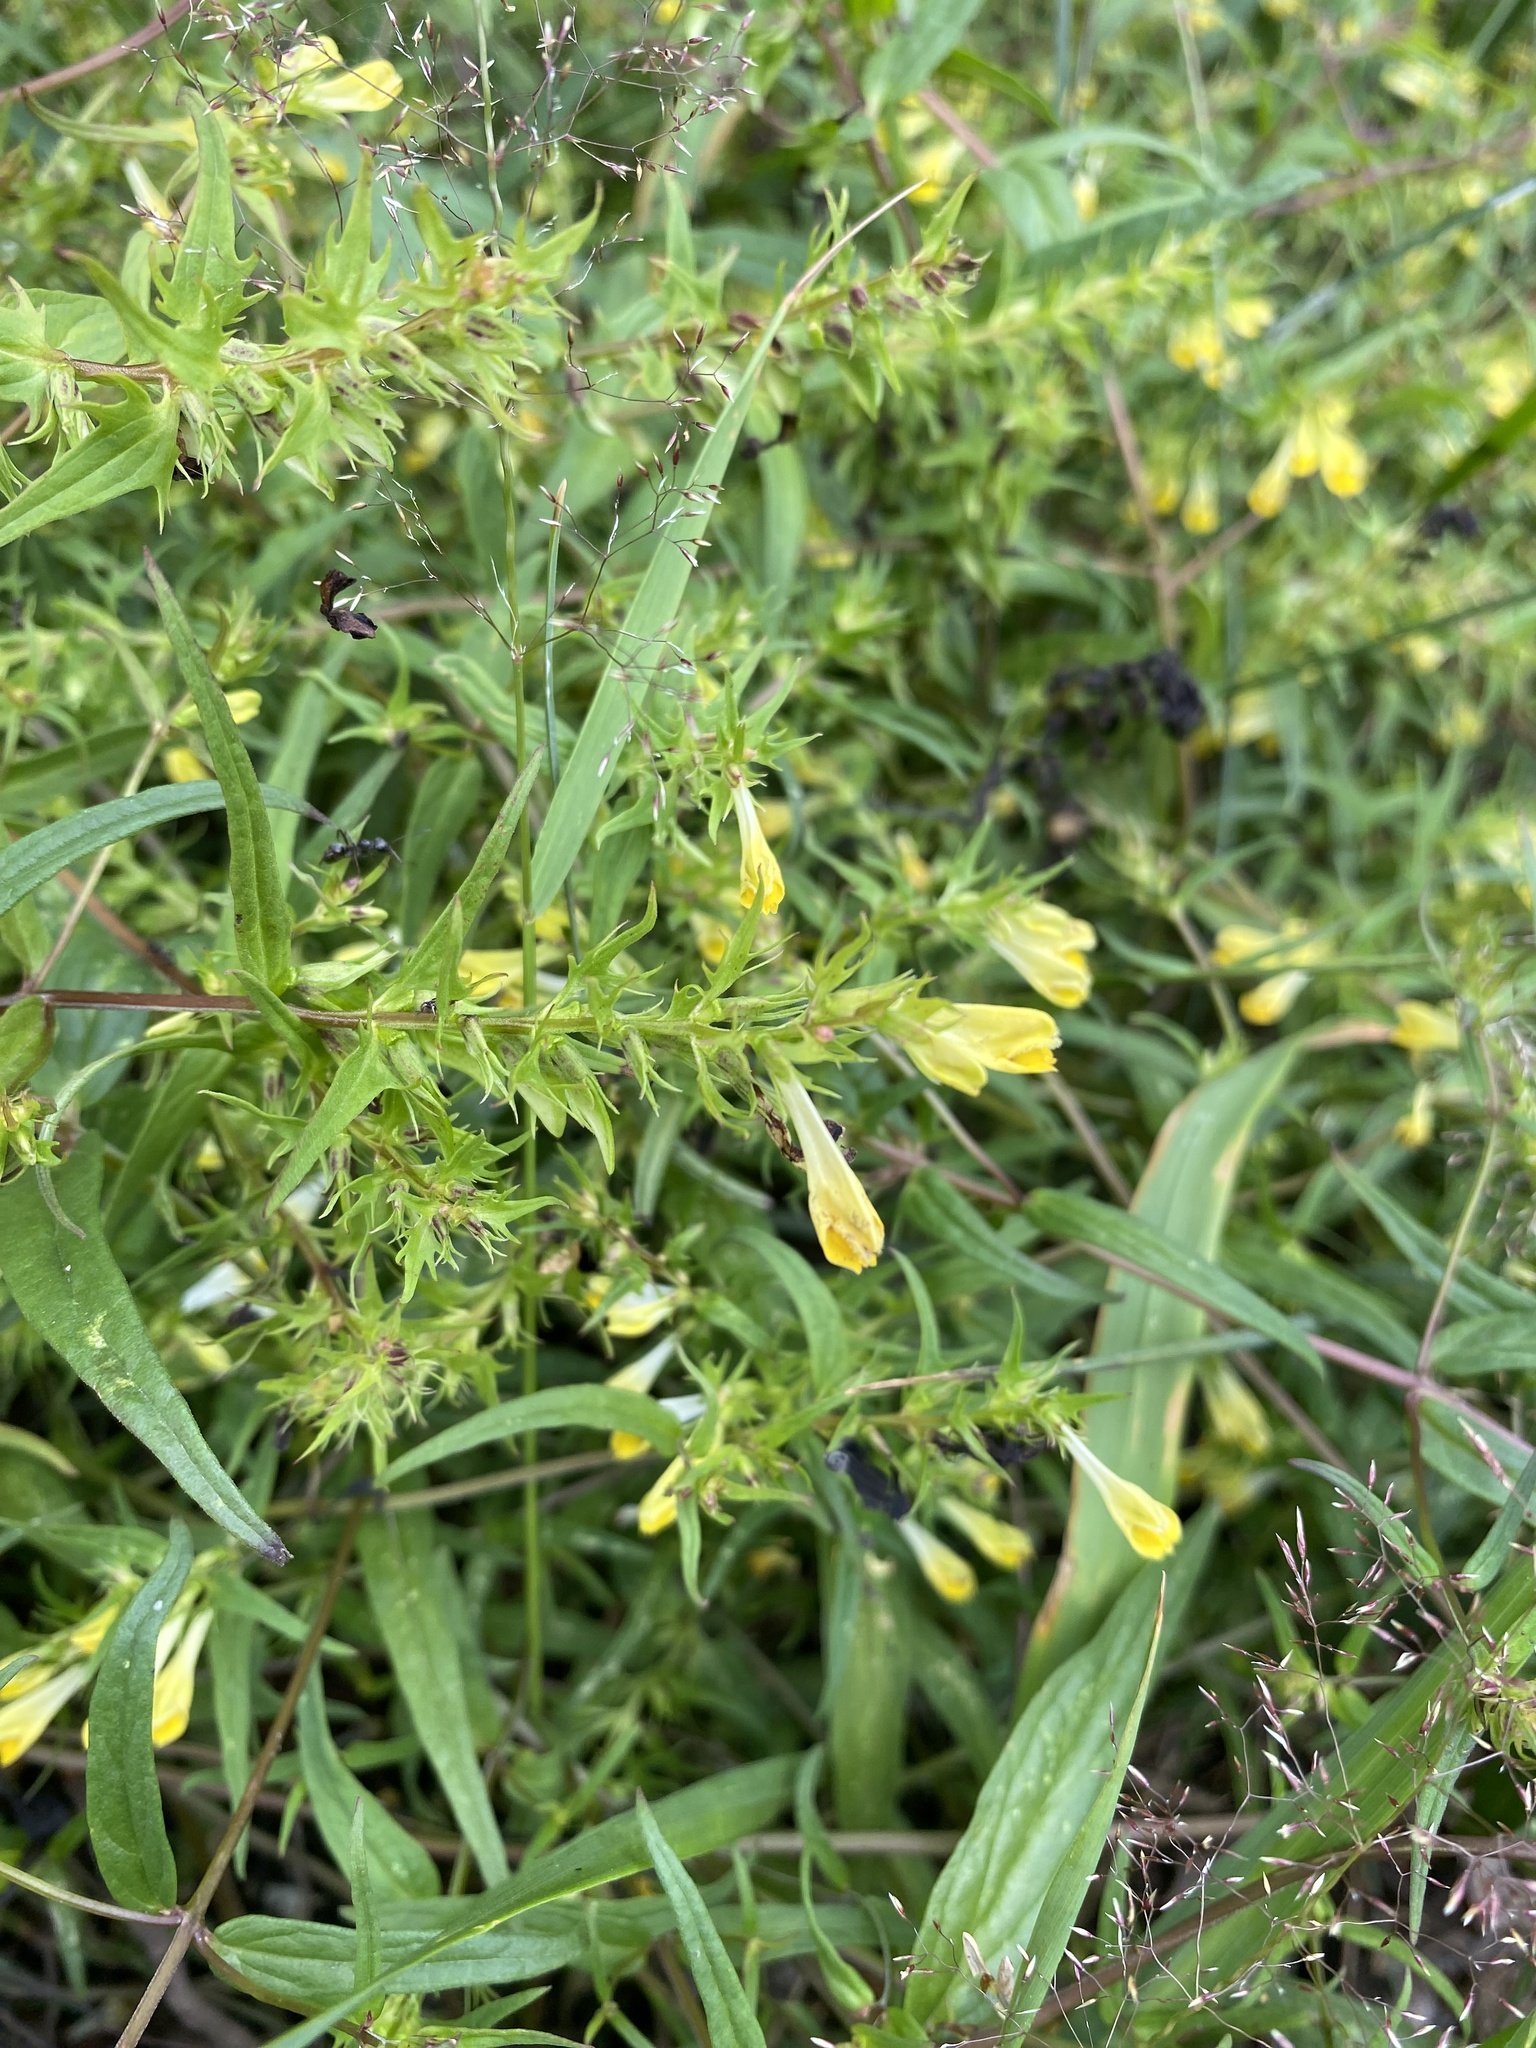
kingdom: Plantae
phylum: Tracheophyta
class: Magnoliopsida
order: Lamiales
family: Orobanchaceae
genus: Melampyrum
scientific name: Melampyrum pratense
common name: Common cow-wheat
